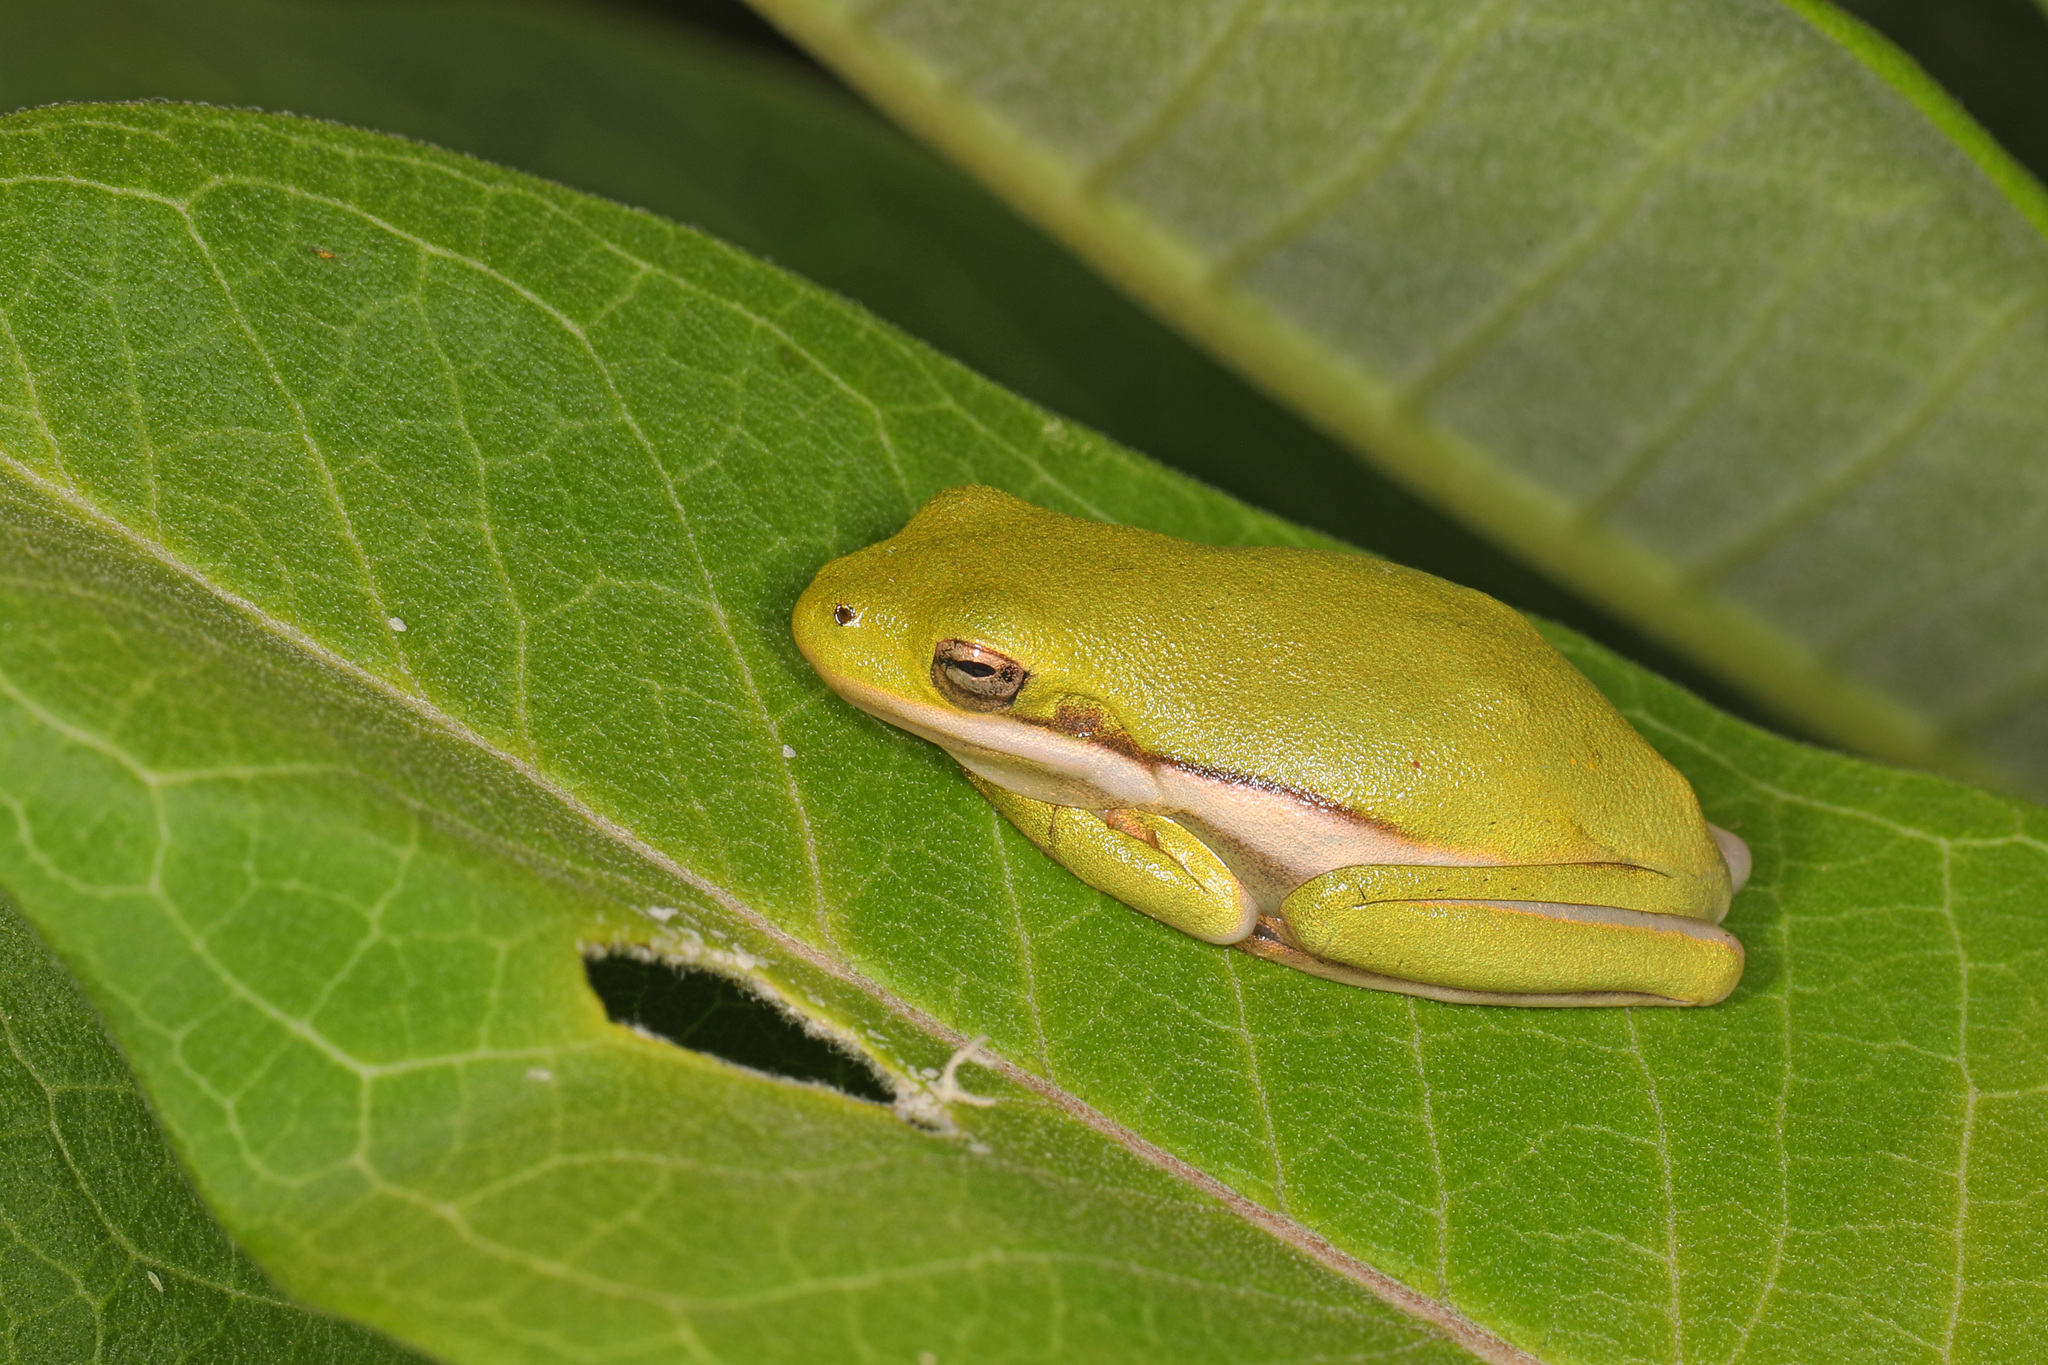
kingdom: Animalia
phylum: Chordata
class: Amphibia
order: Anura
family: Hylidae
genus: Dryophytes
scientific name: Dryophytes cinereus
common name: Green treefrog
